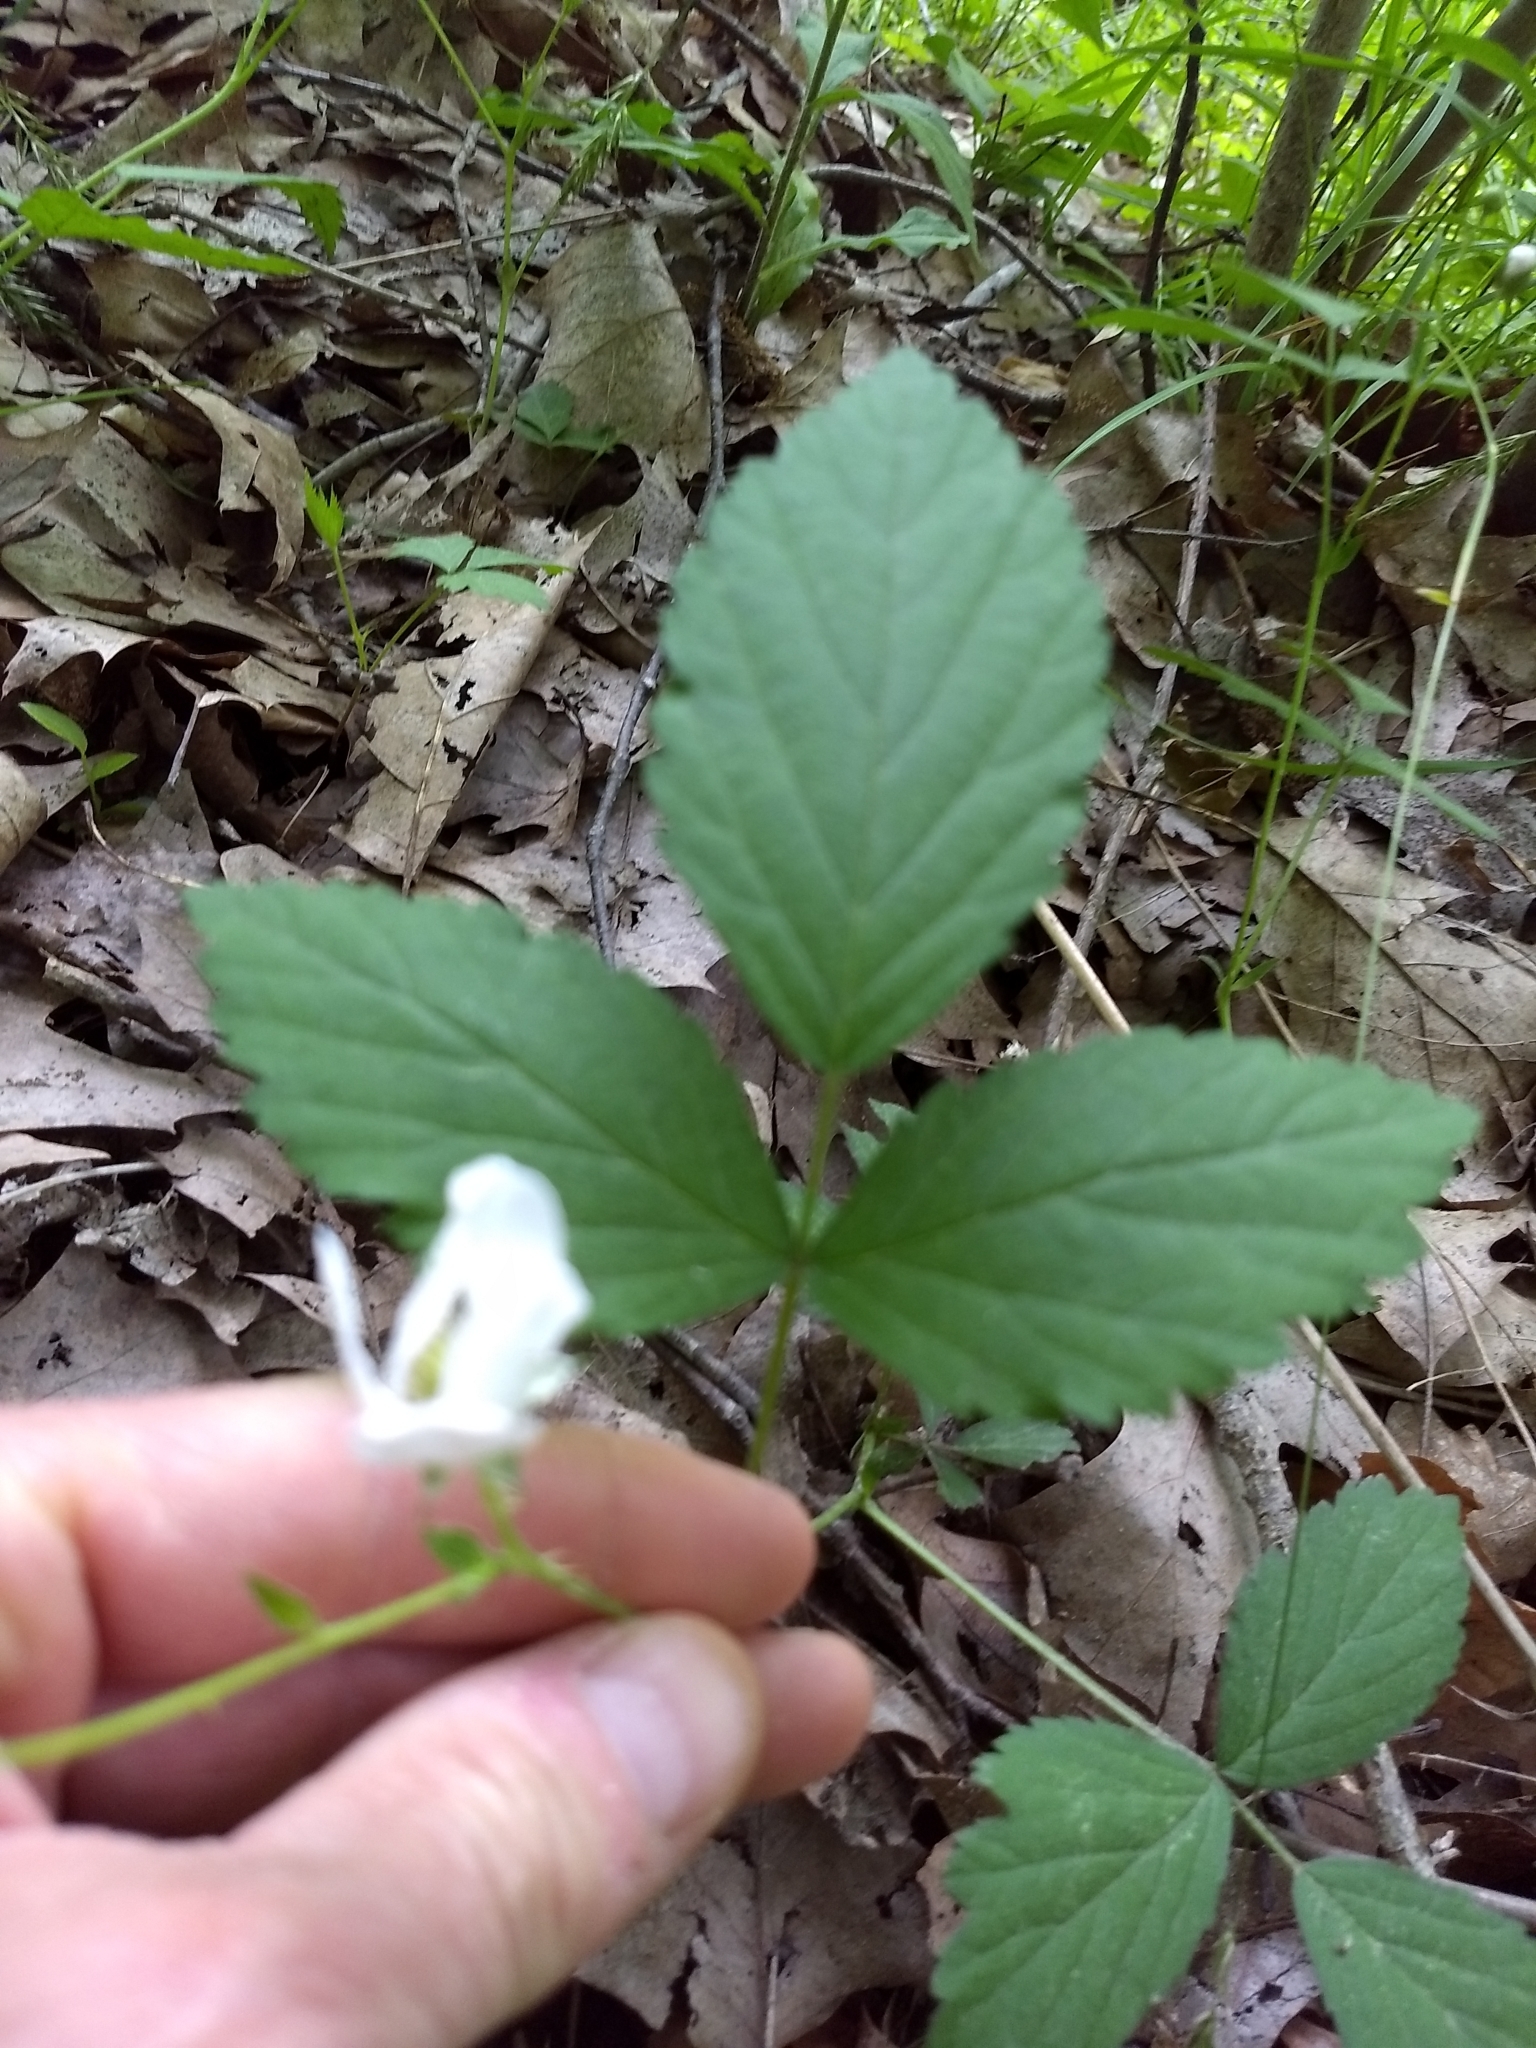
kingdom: Plantae
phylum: Tracheophyta
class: Magnoliopsida
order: Rosales
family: Rosaceae
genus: Rubus
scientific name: Rubus flagellaris
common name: American dewberry
